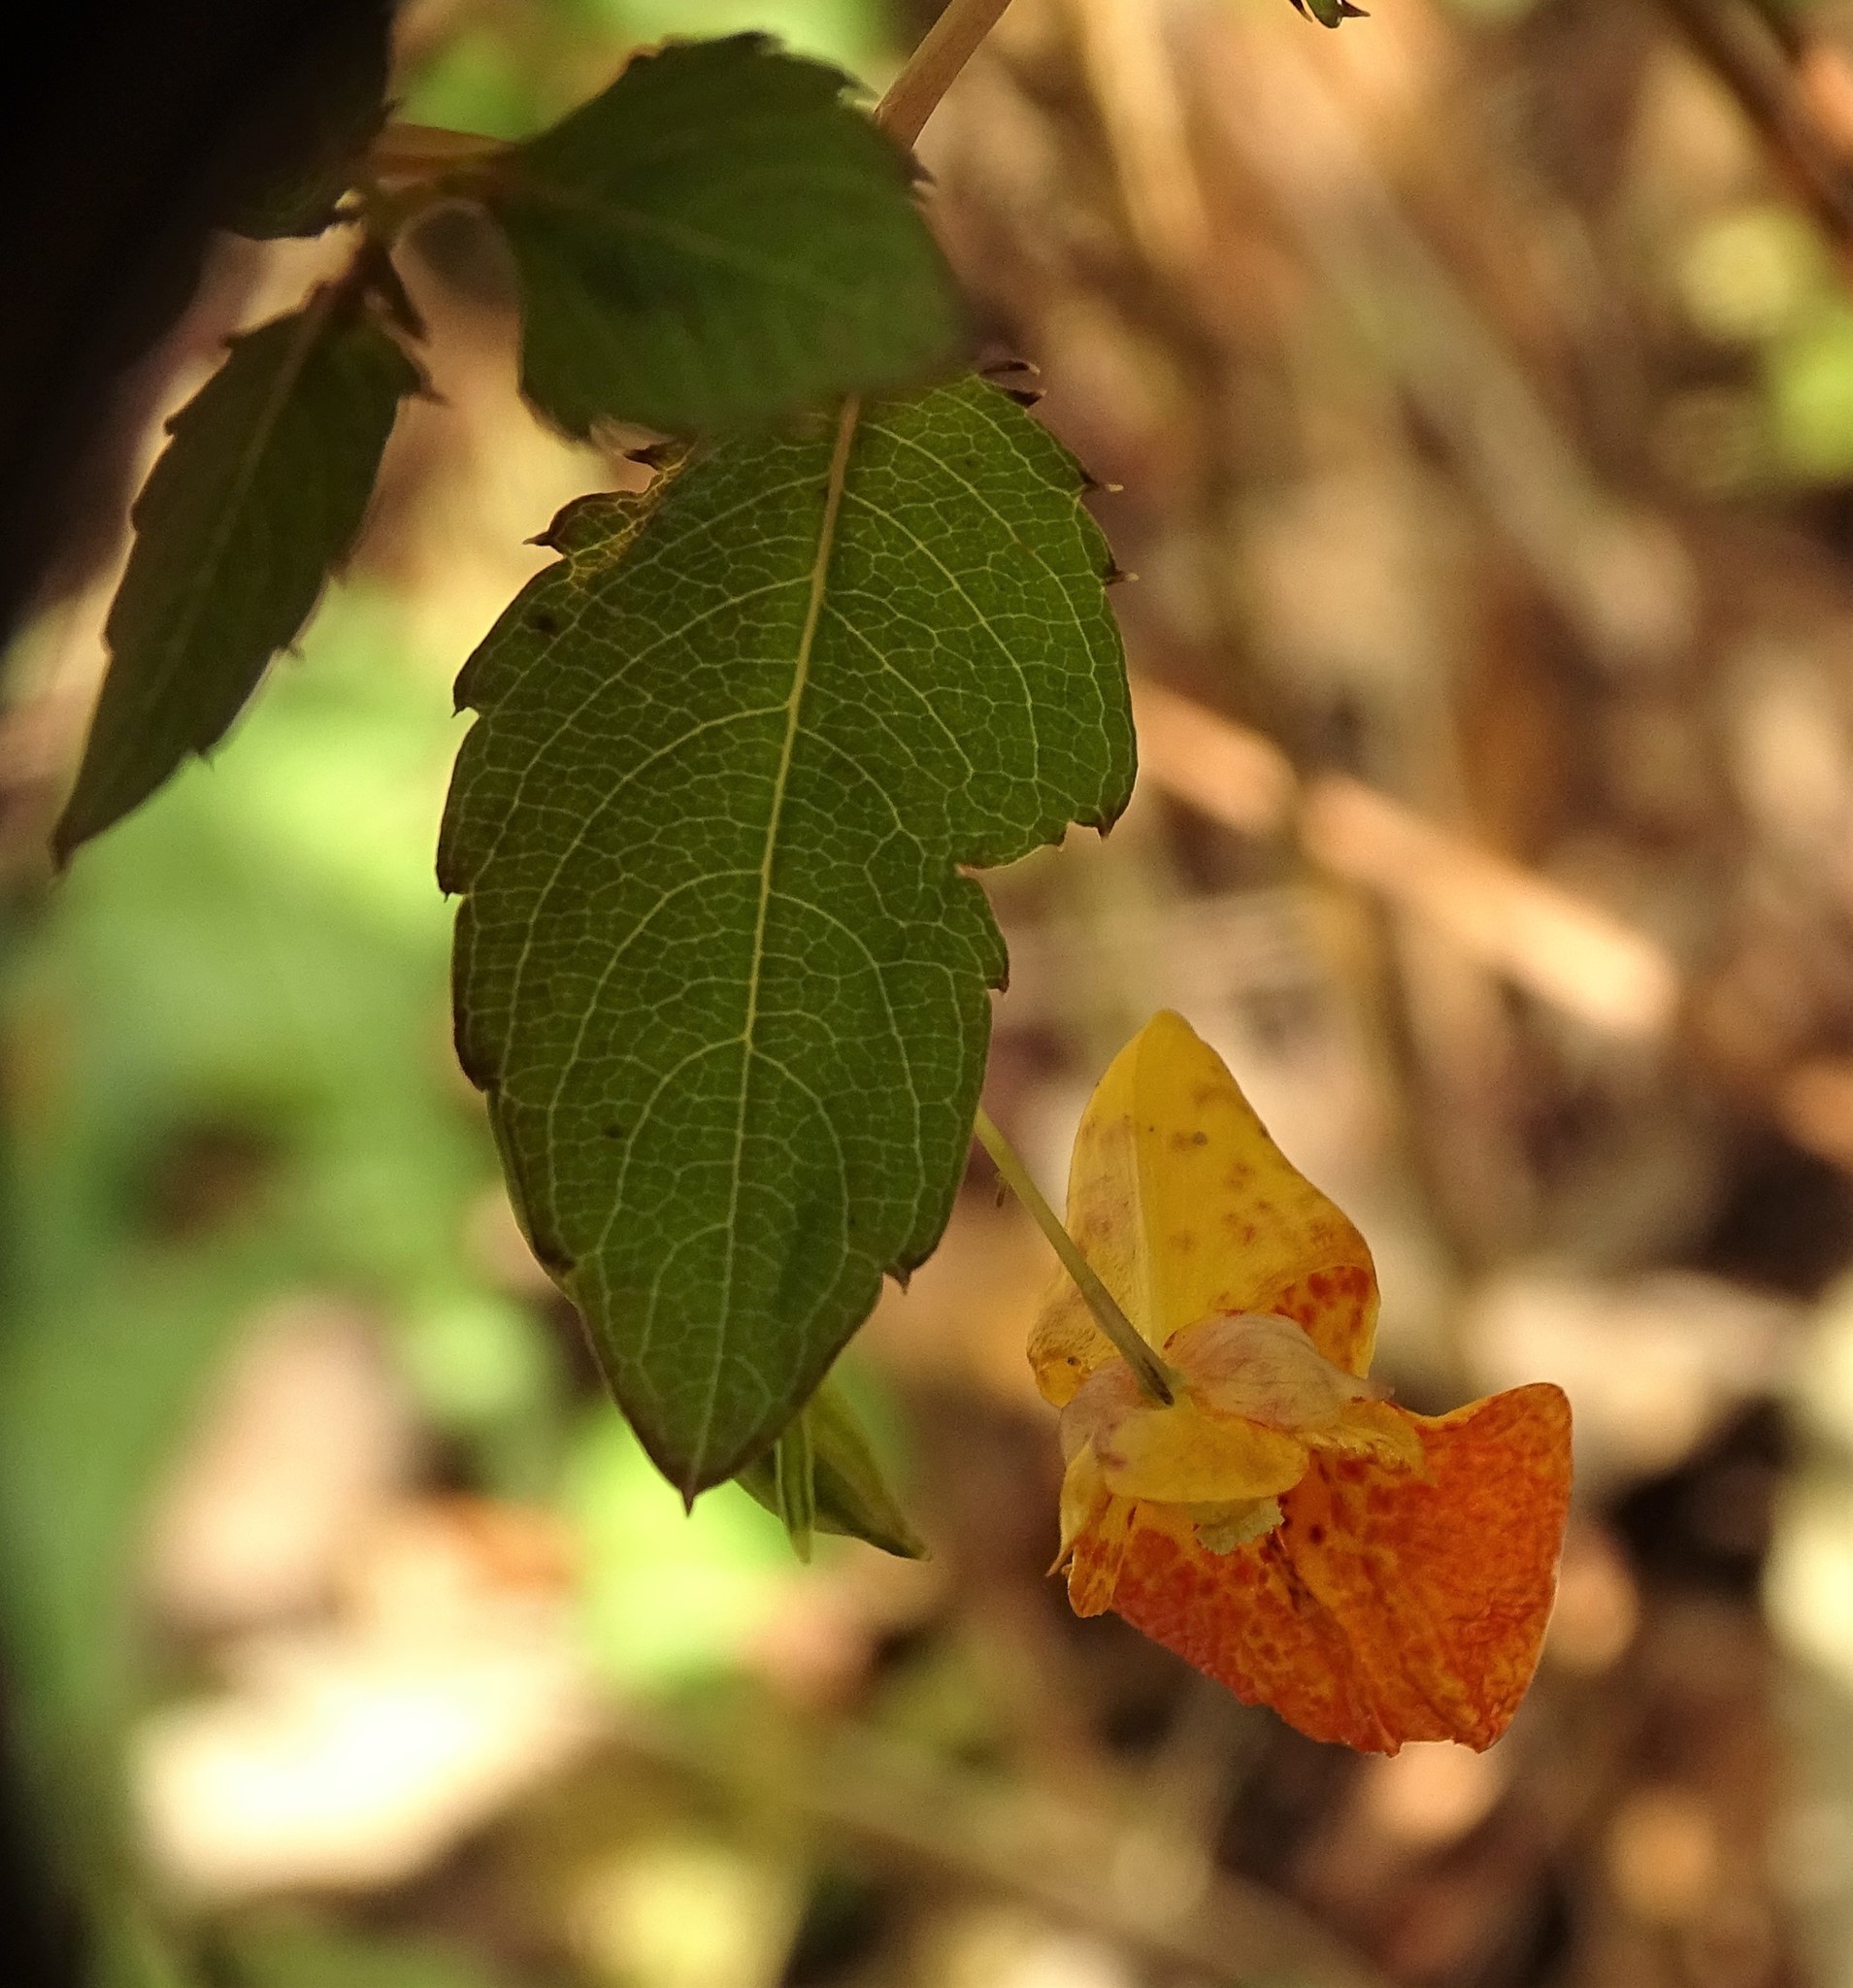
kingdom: Plantae
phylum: Tracheophyta
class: Magnoliopsida
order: Ericales
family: Balsaminaceae
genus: Impatiens
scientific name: Impatiens capensis
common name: Orange balsam
